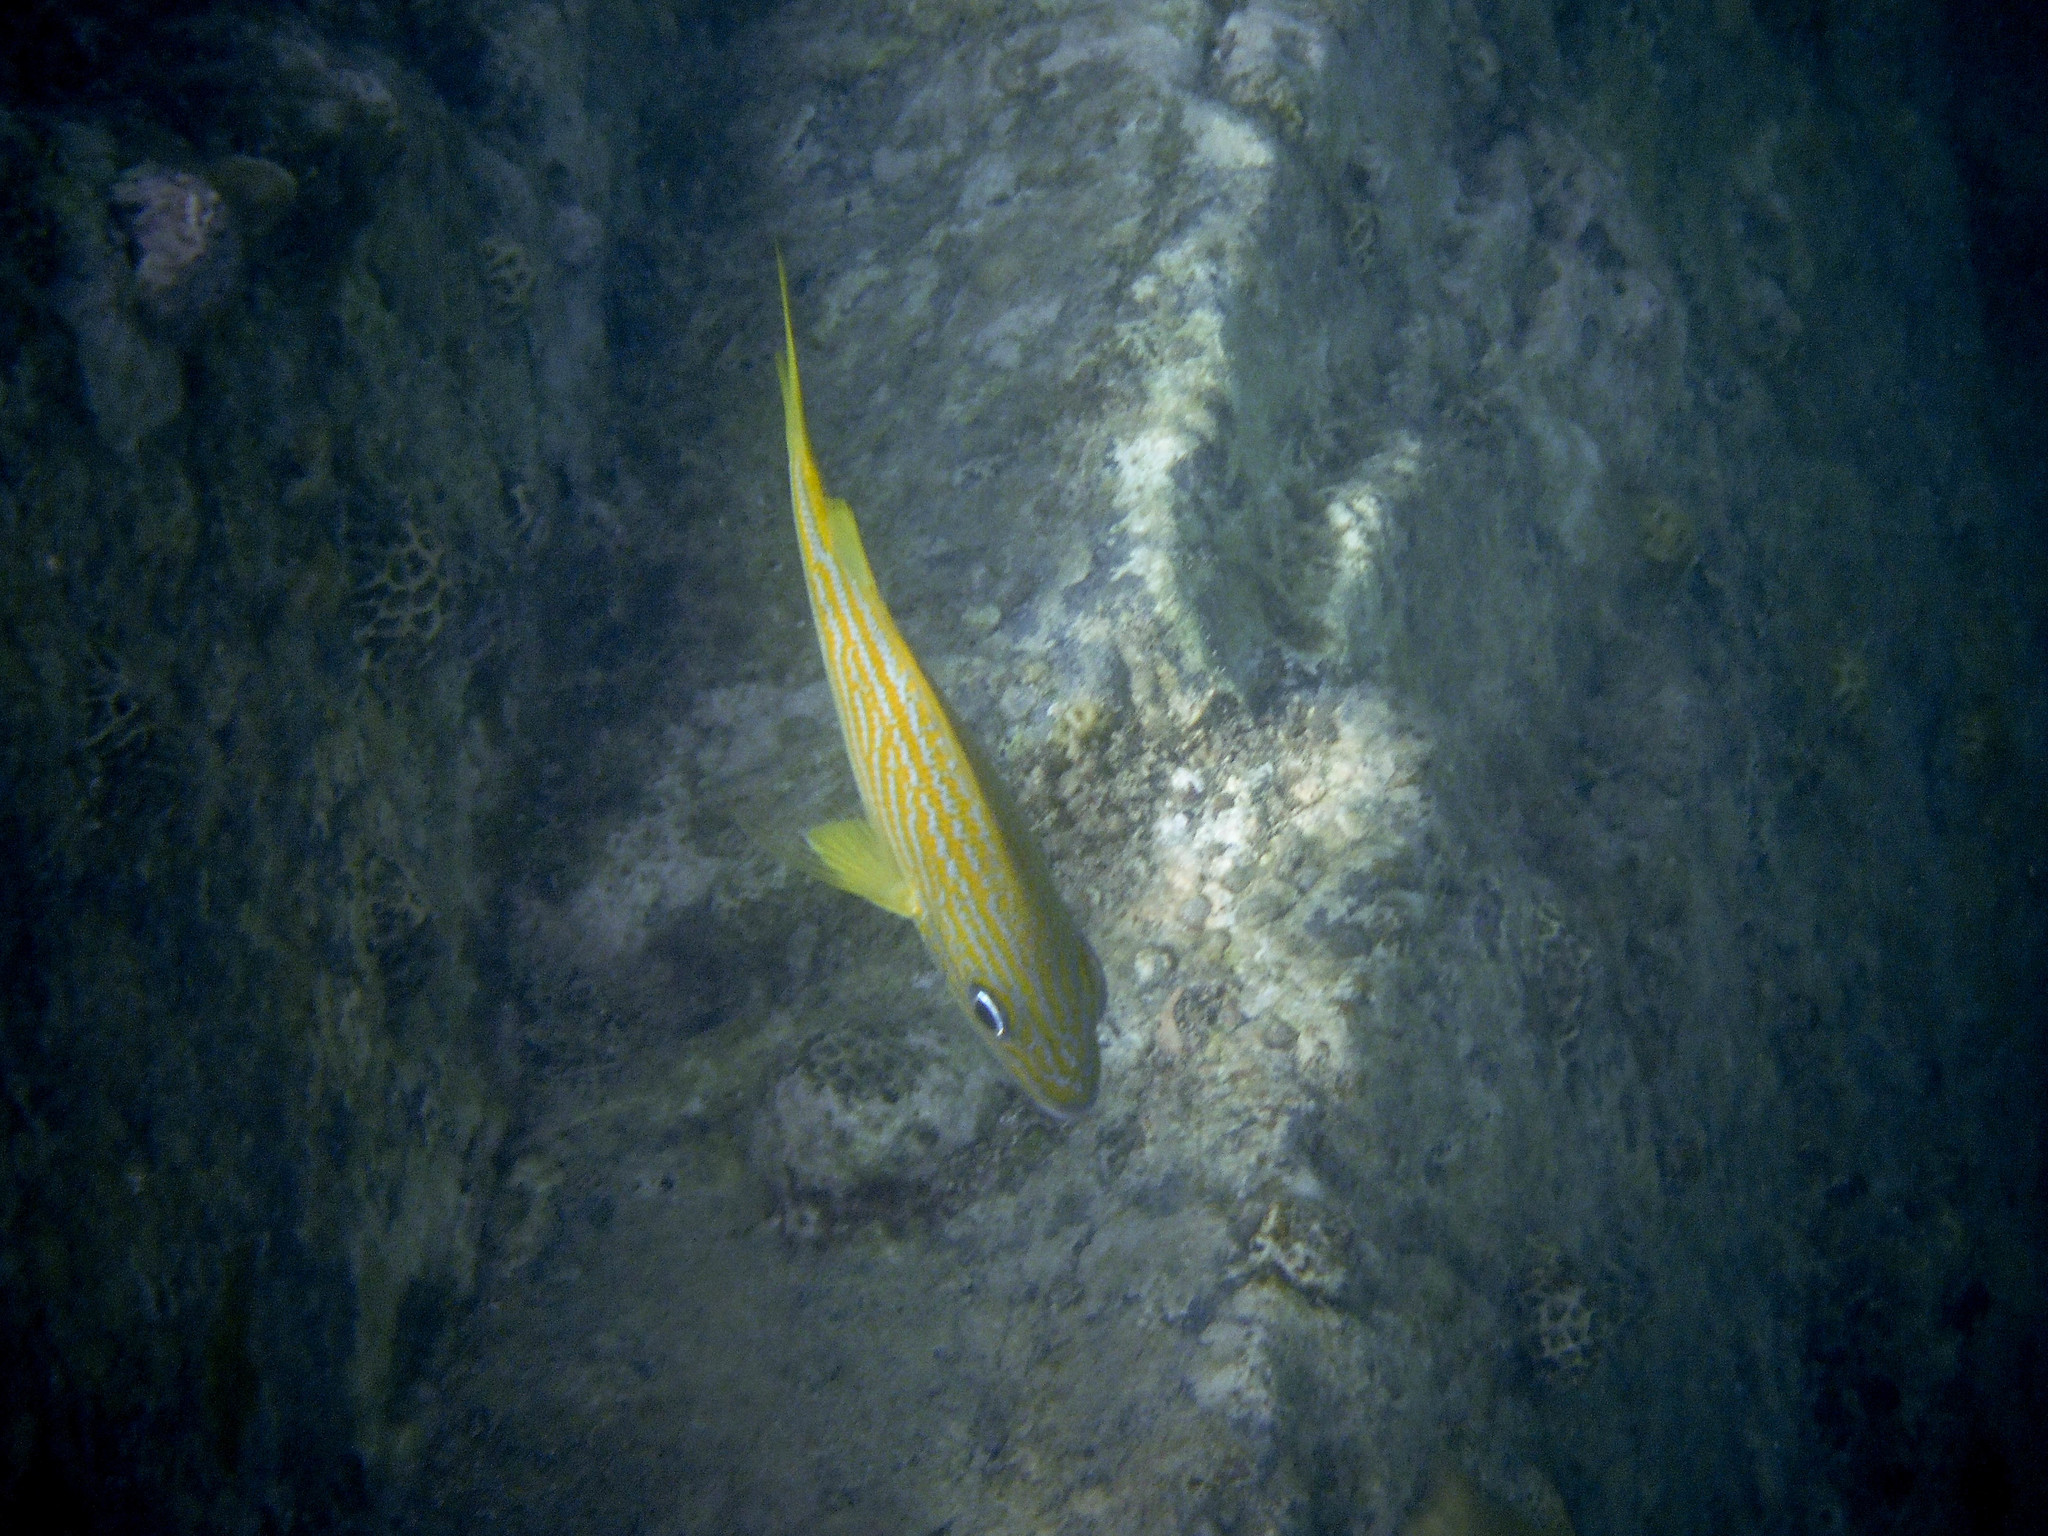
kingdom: Animalia
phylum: Chordata
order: Perciformes
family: Haemulidae
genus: Haemulon
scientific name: Haemulon flavolineatum
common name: French grunt
